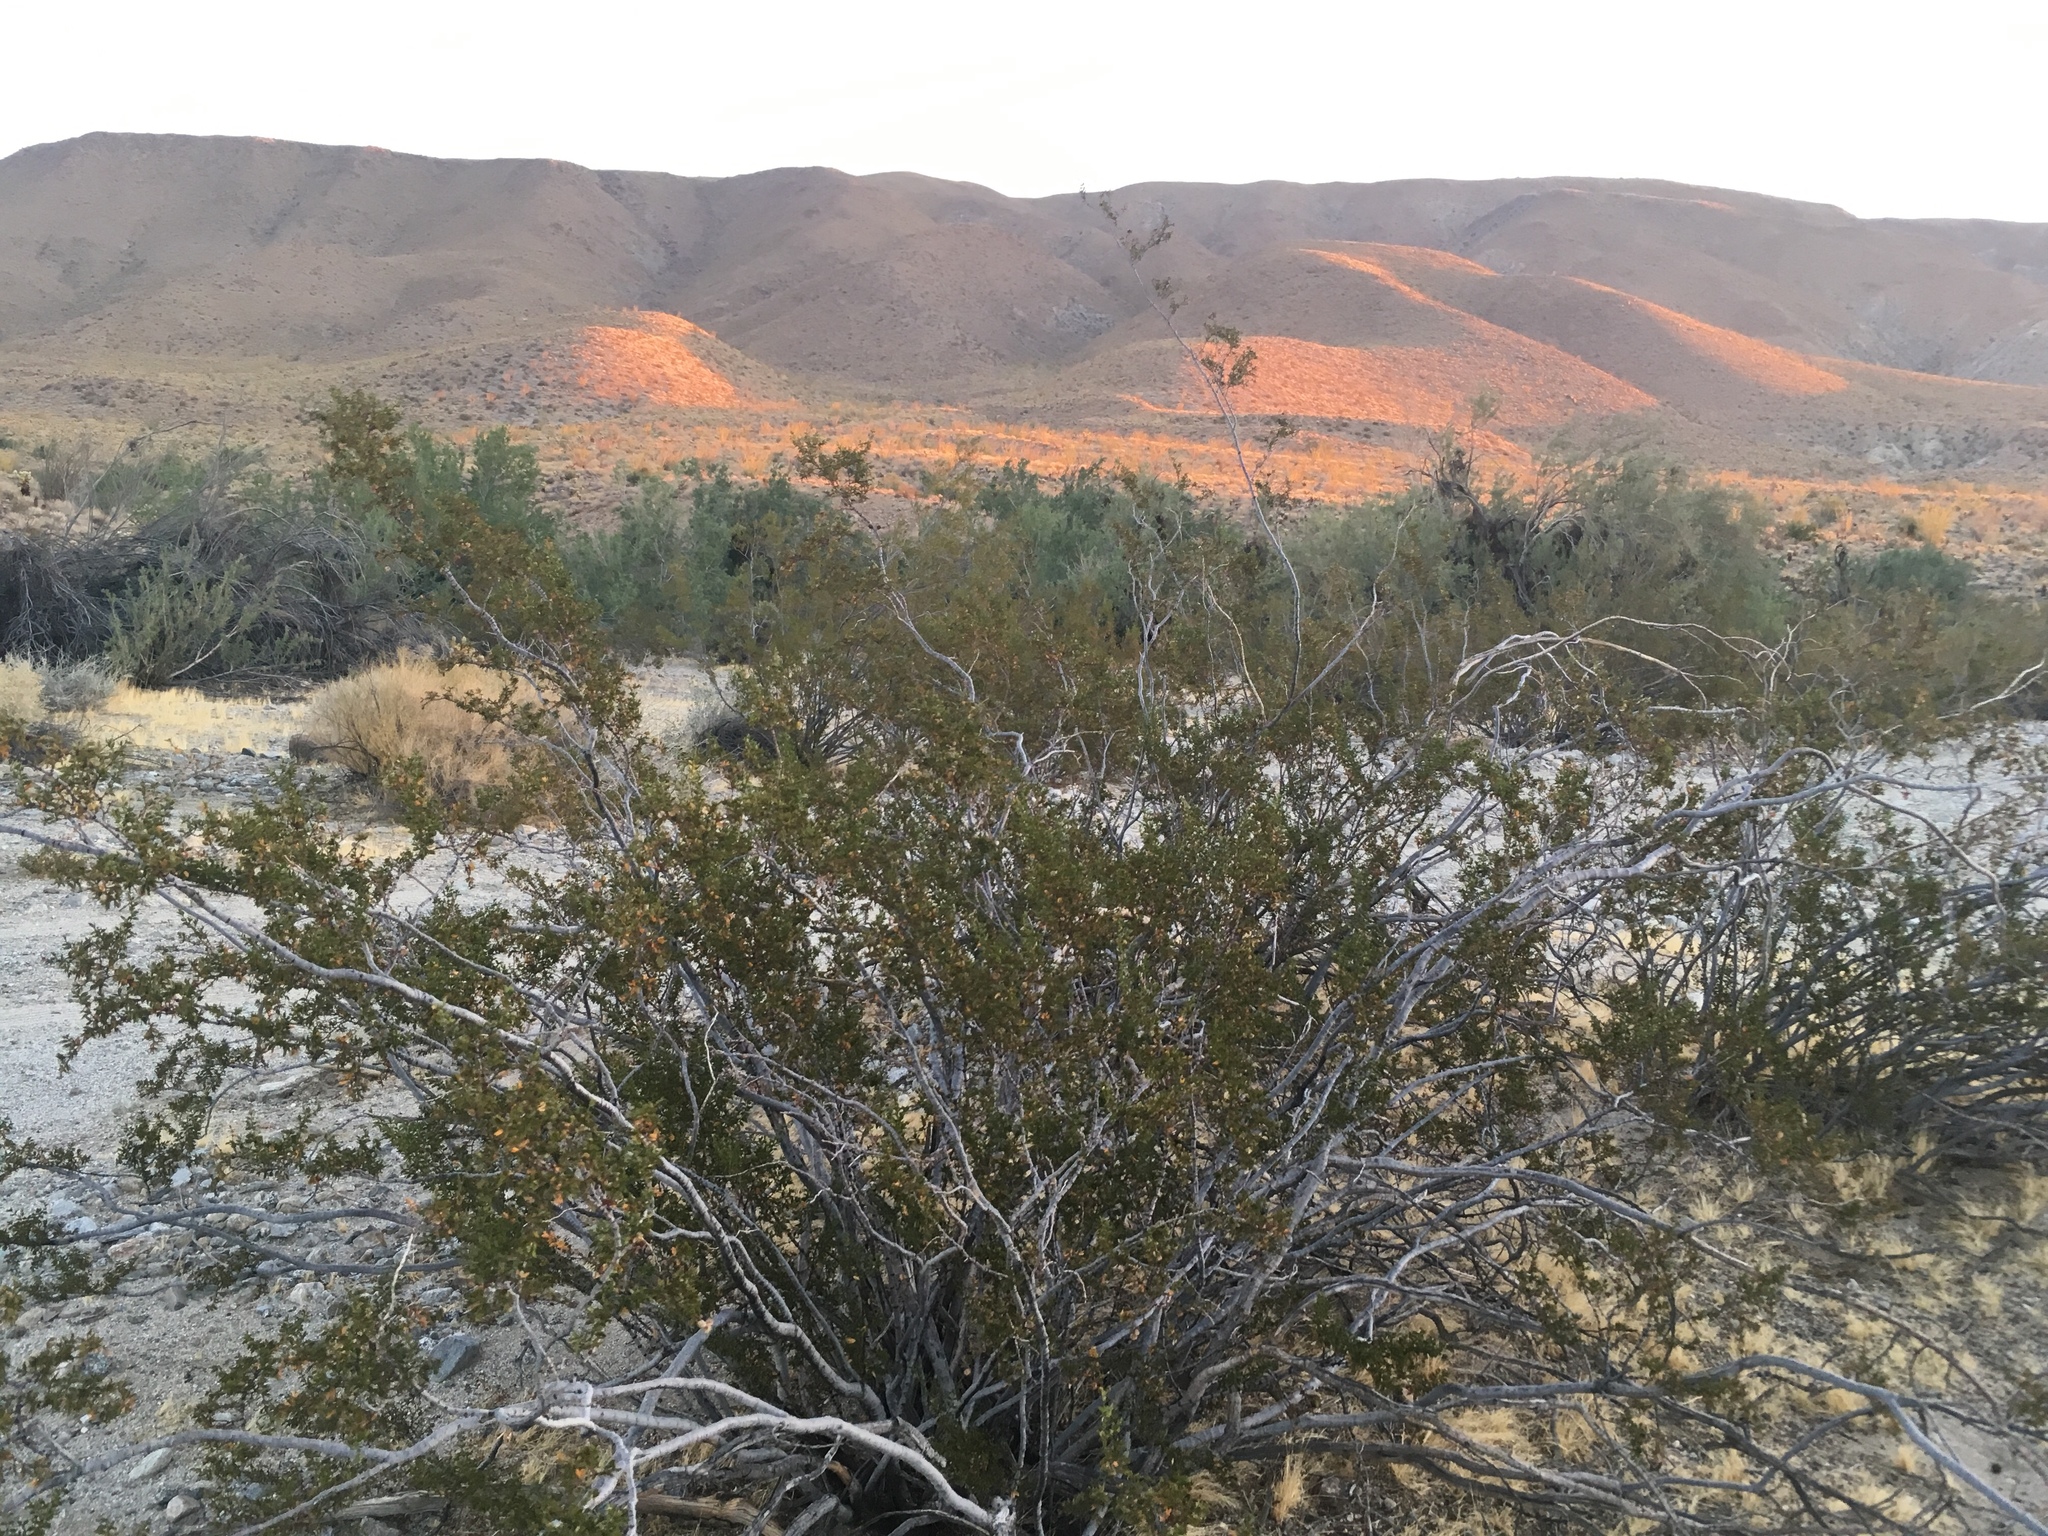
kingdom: Plantae
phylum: Tracheophyta
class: Magnoliopsida
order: Zygophyllales
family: Zygophyllaceae
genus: Larrea
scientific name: Larrea tridentata
